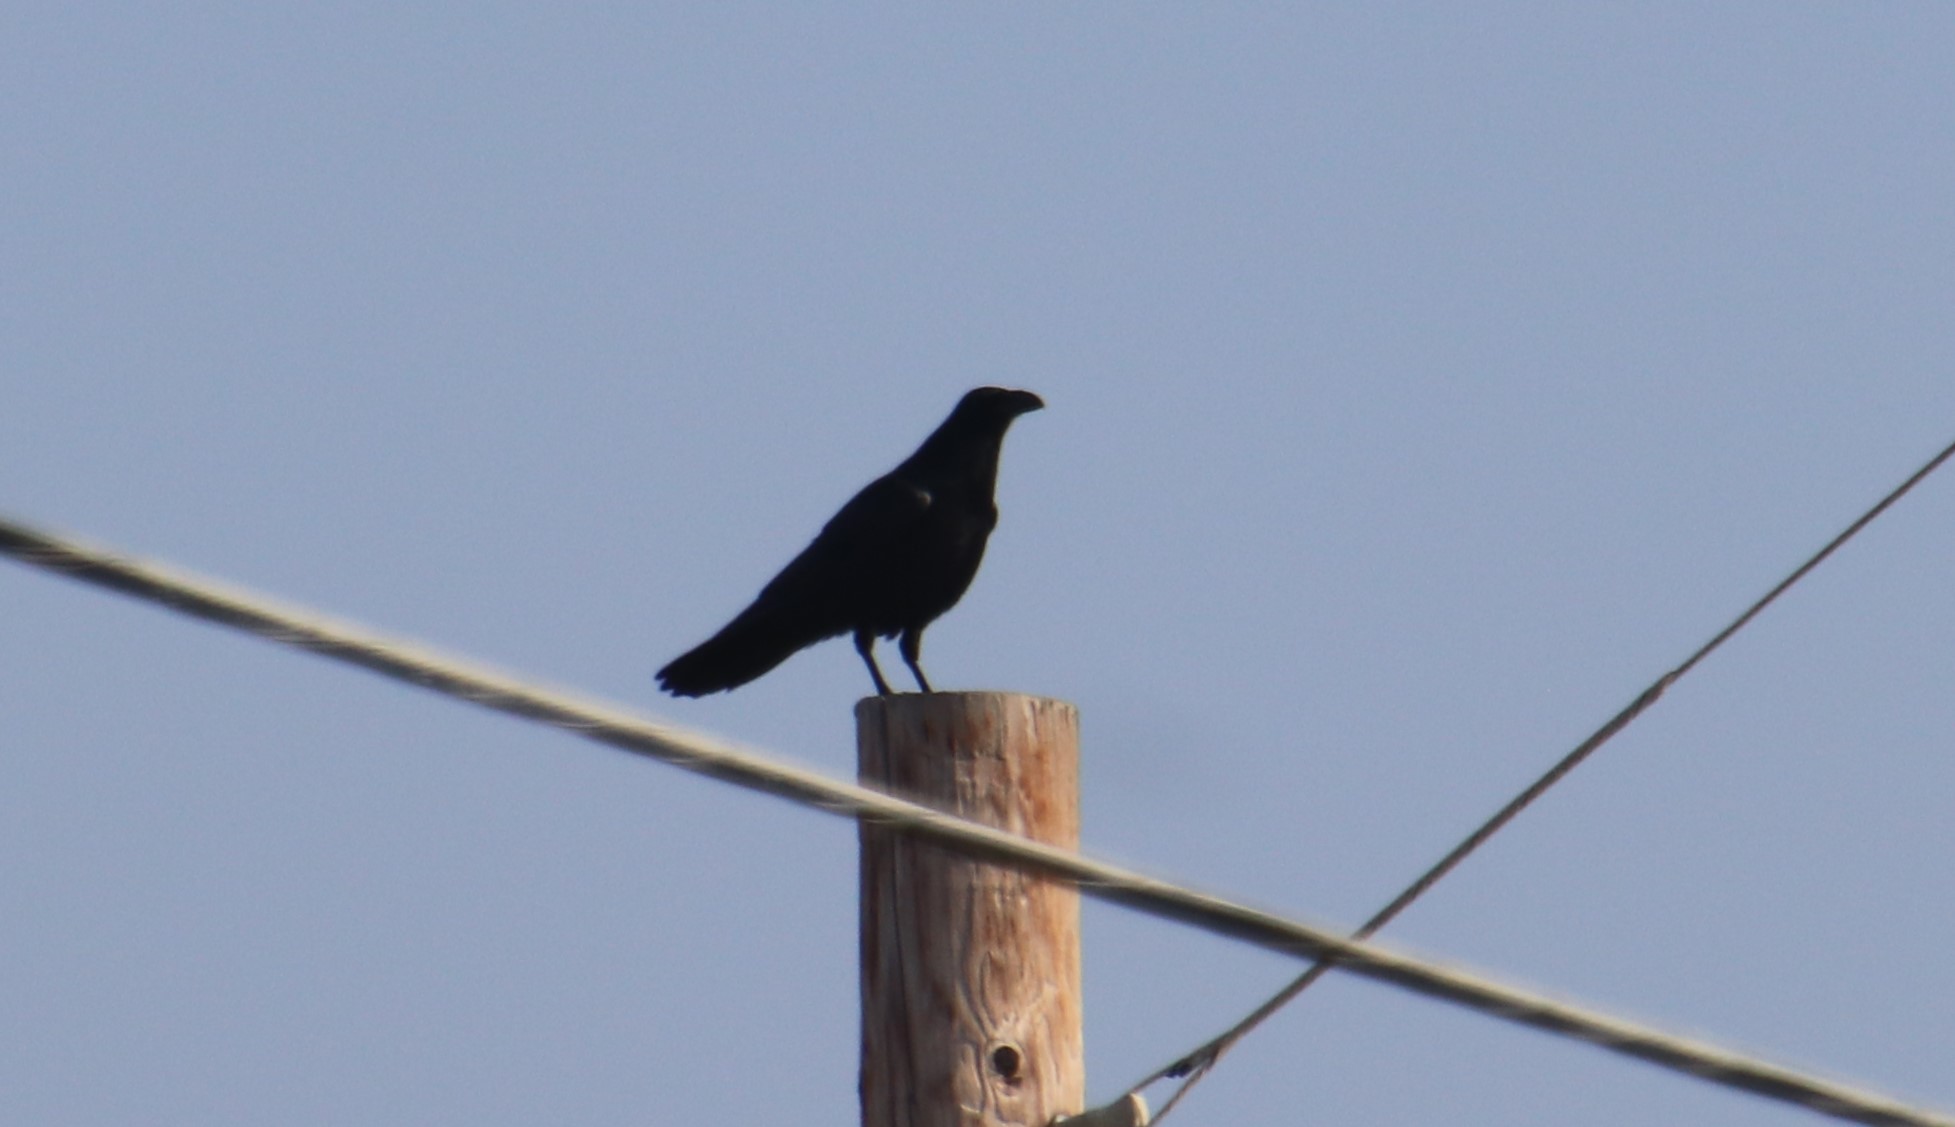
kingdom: Animalia
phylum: Chordata
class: Aves
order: Passeriformes
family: Corvidae
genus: Corvus
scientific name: Corvus corax
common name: Common raven
